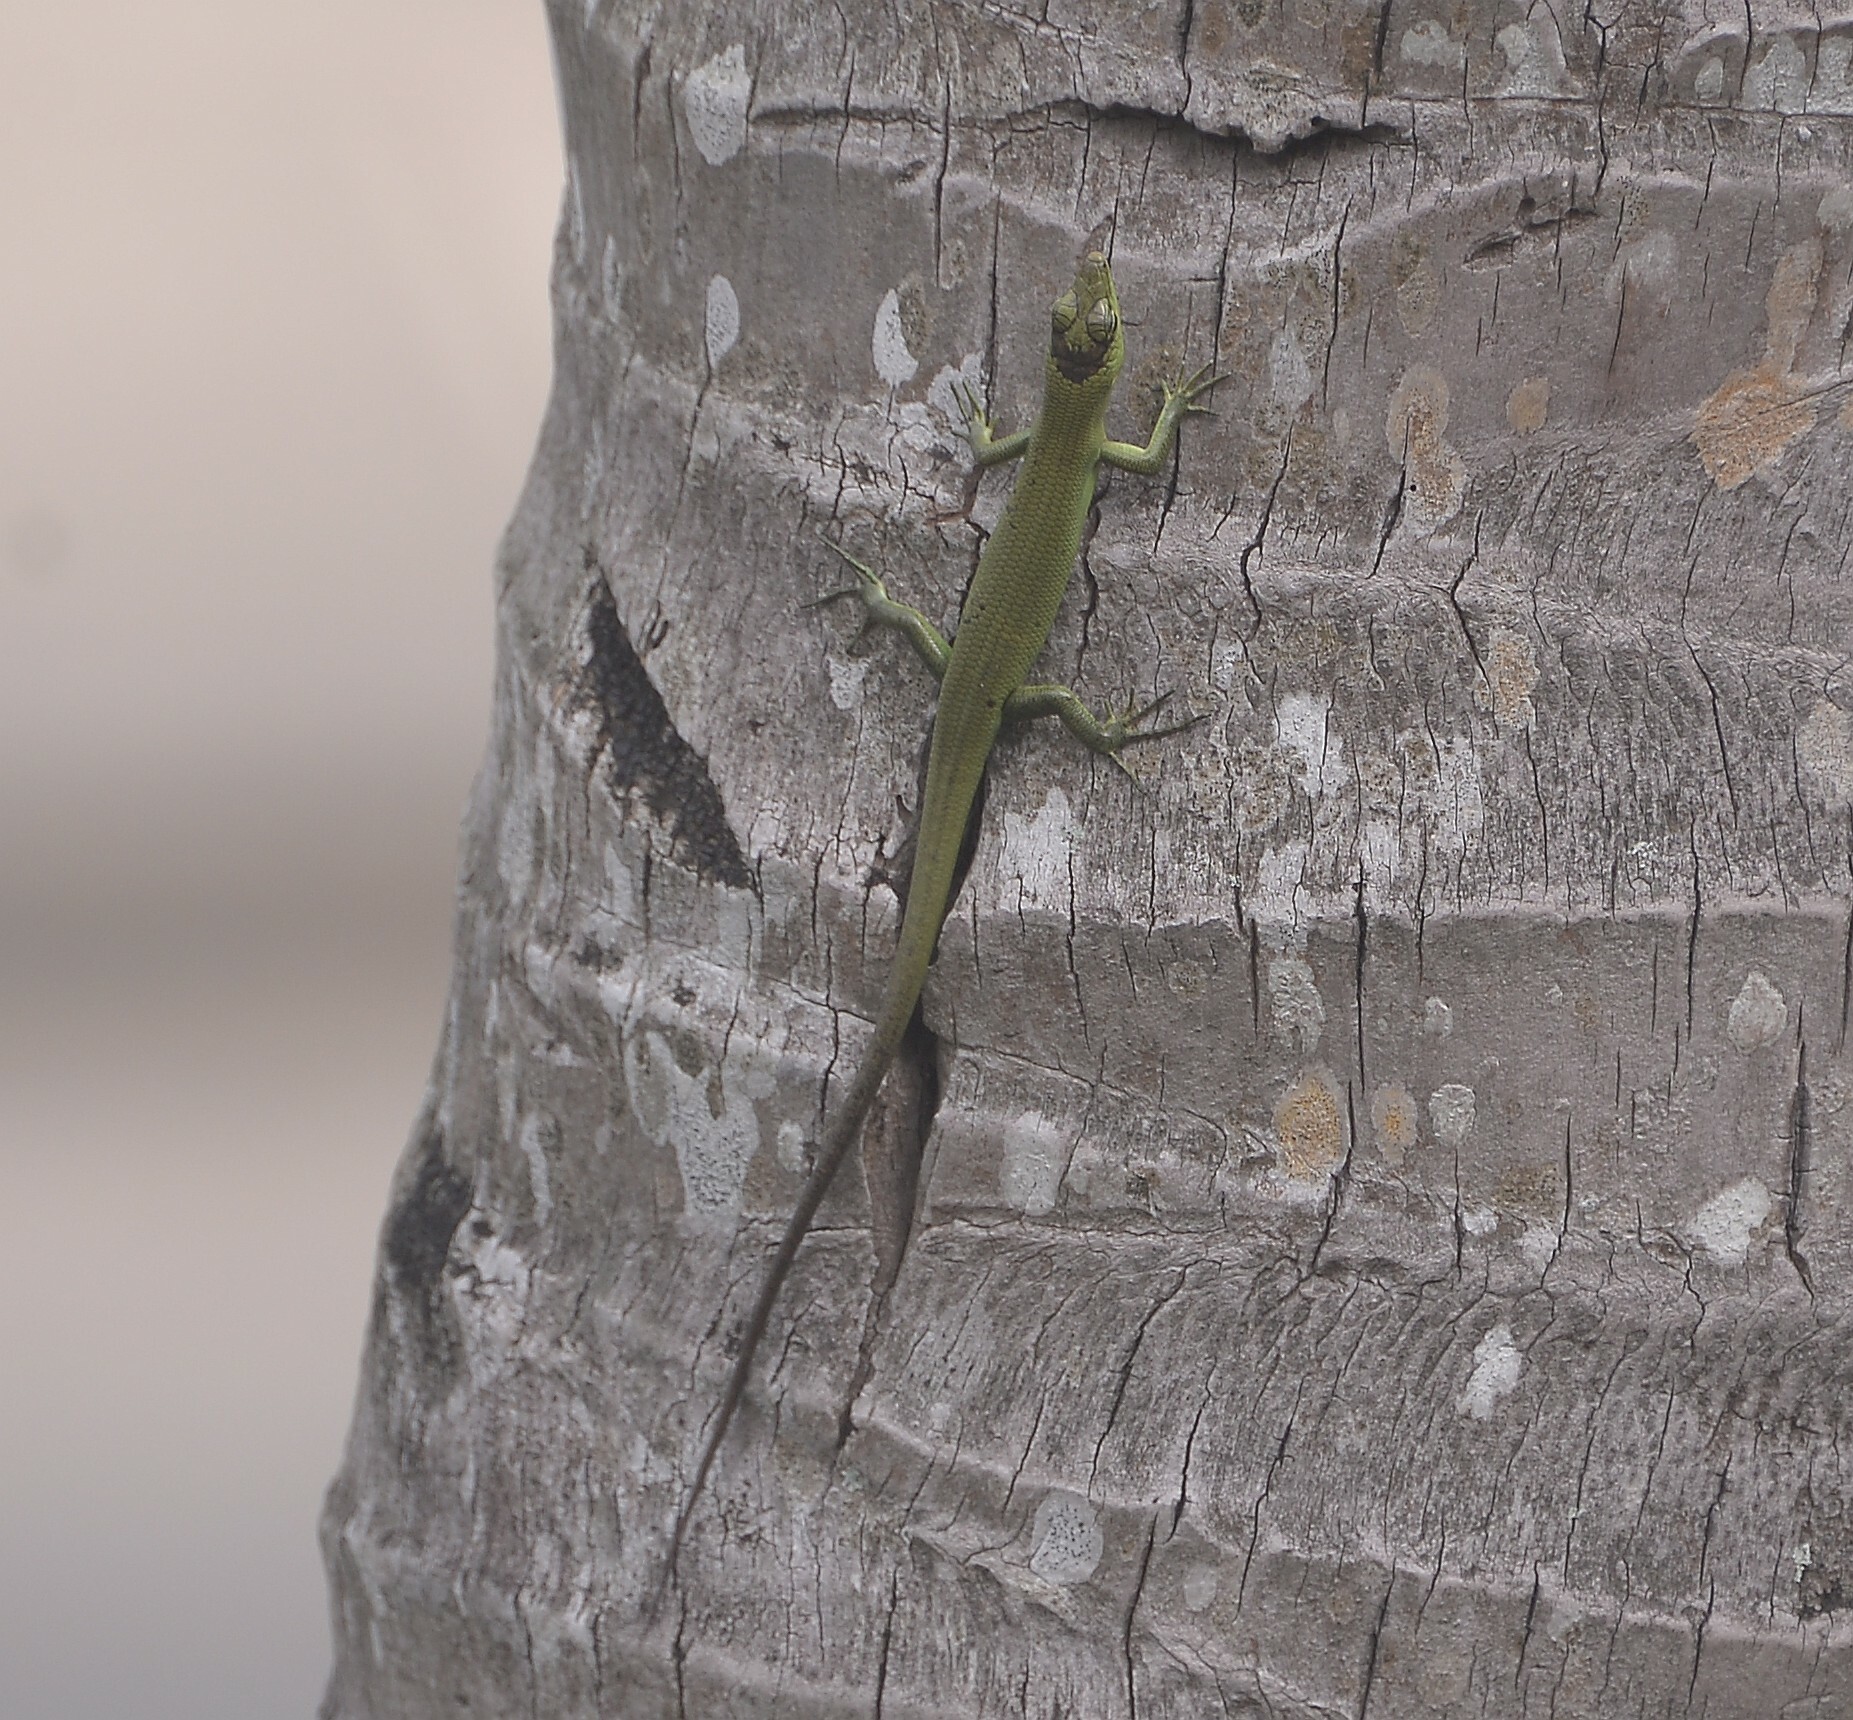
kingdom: Animalia
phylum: Chordata
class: Squamata
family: Scincidae
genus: Emoia
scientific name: Emoia sanfordi
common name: Sanford's tree skink
